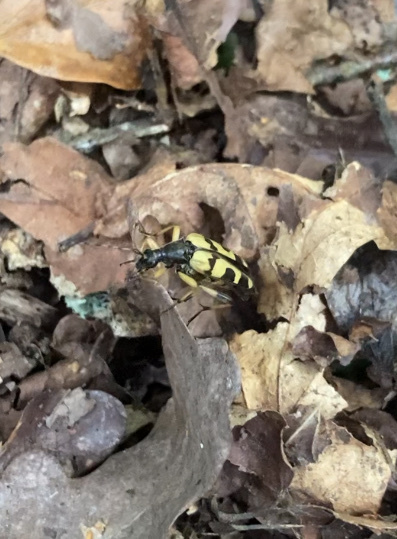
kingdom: Animalia
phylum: Arthropoda
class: Insecta
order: Coleoptera
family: Cerambycidae
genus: Rutpela
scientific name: Rutpela maculata
